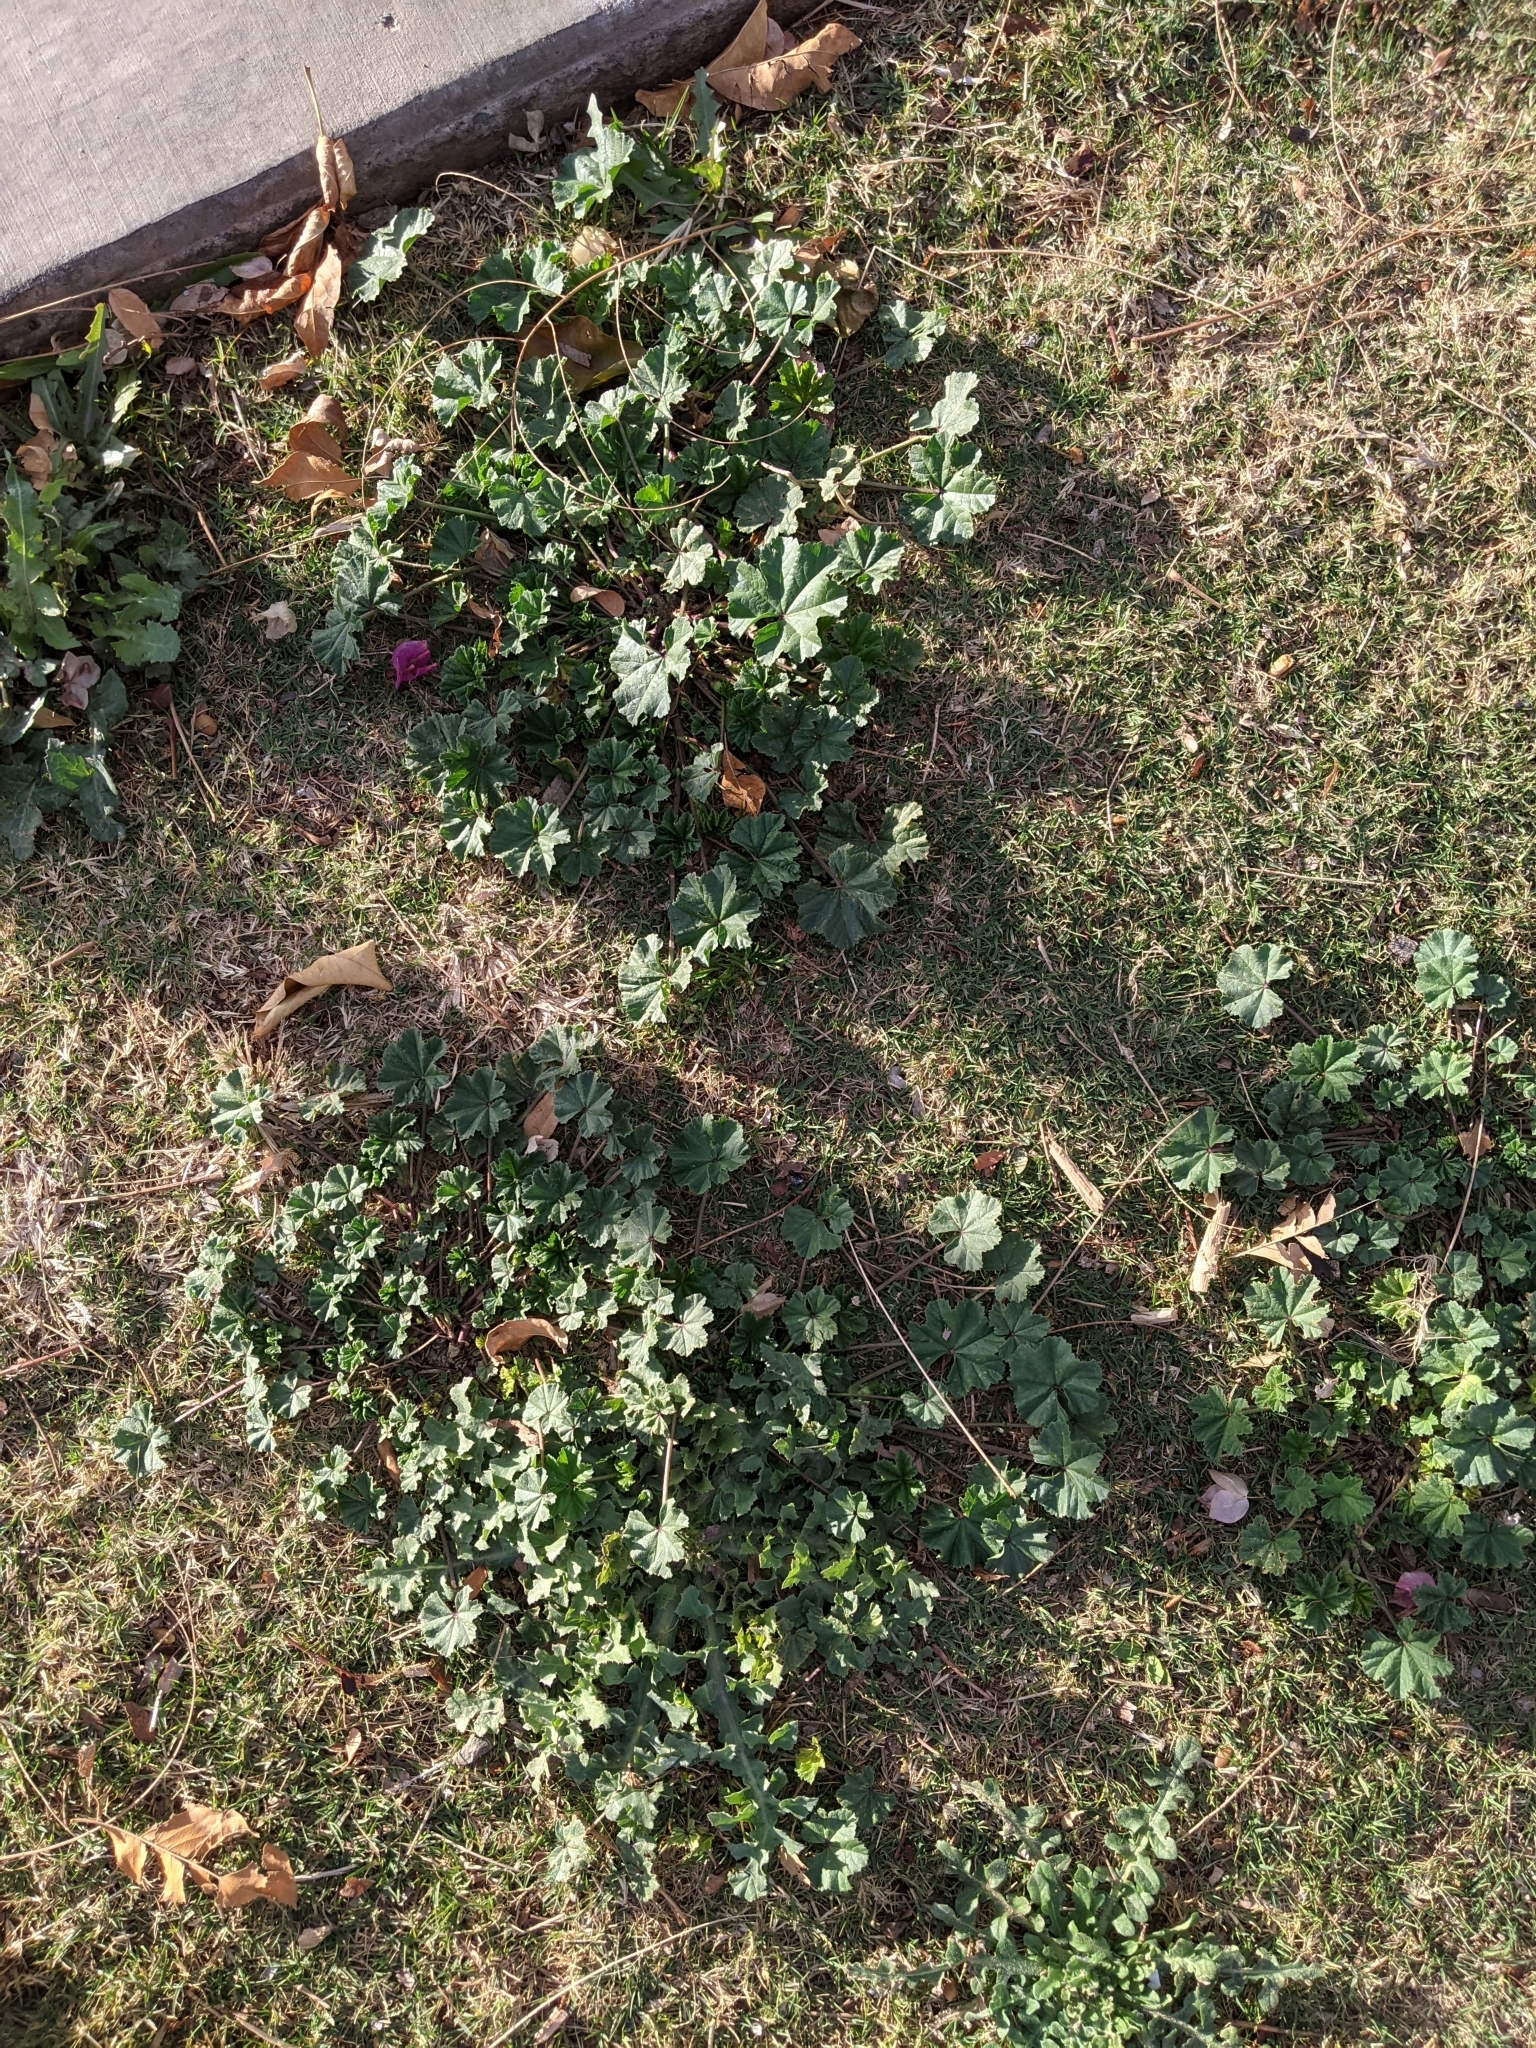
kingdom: Plantae
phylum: Tracheophyta
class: Magnoliopsida
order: Malvales
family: Malvaceae
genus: Malva
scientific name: Malva parviflora
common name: Least mallow
